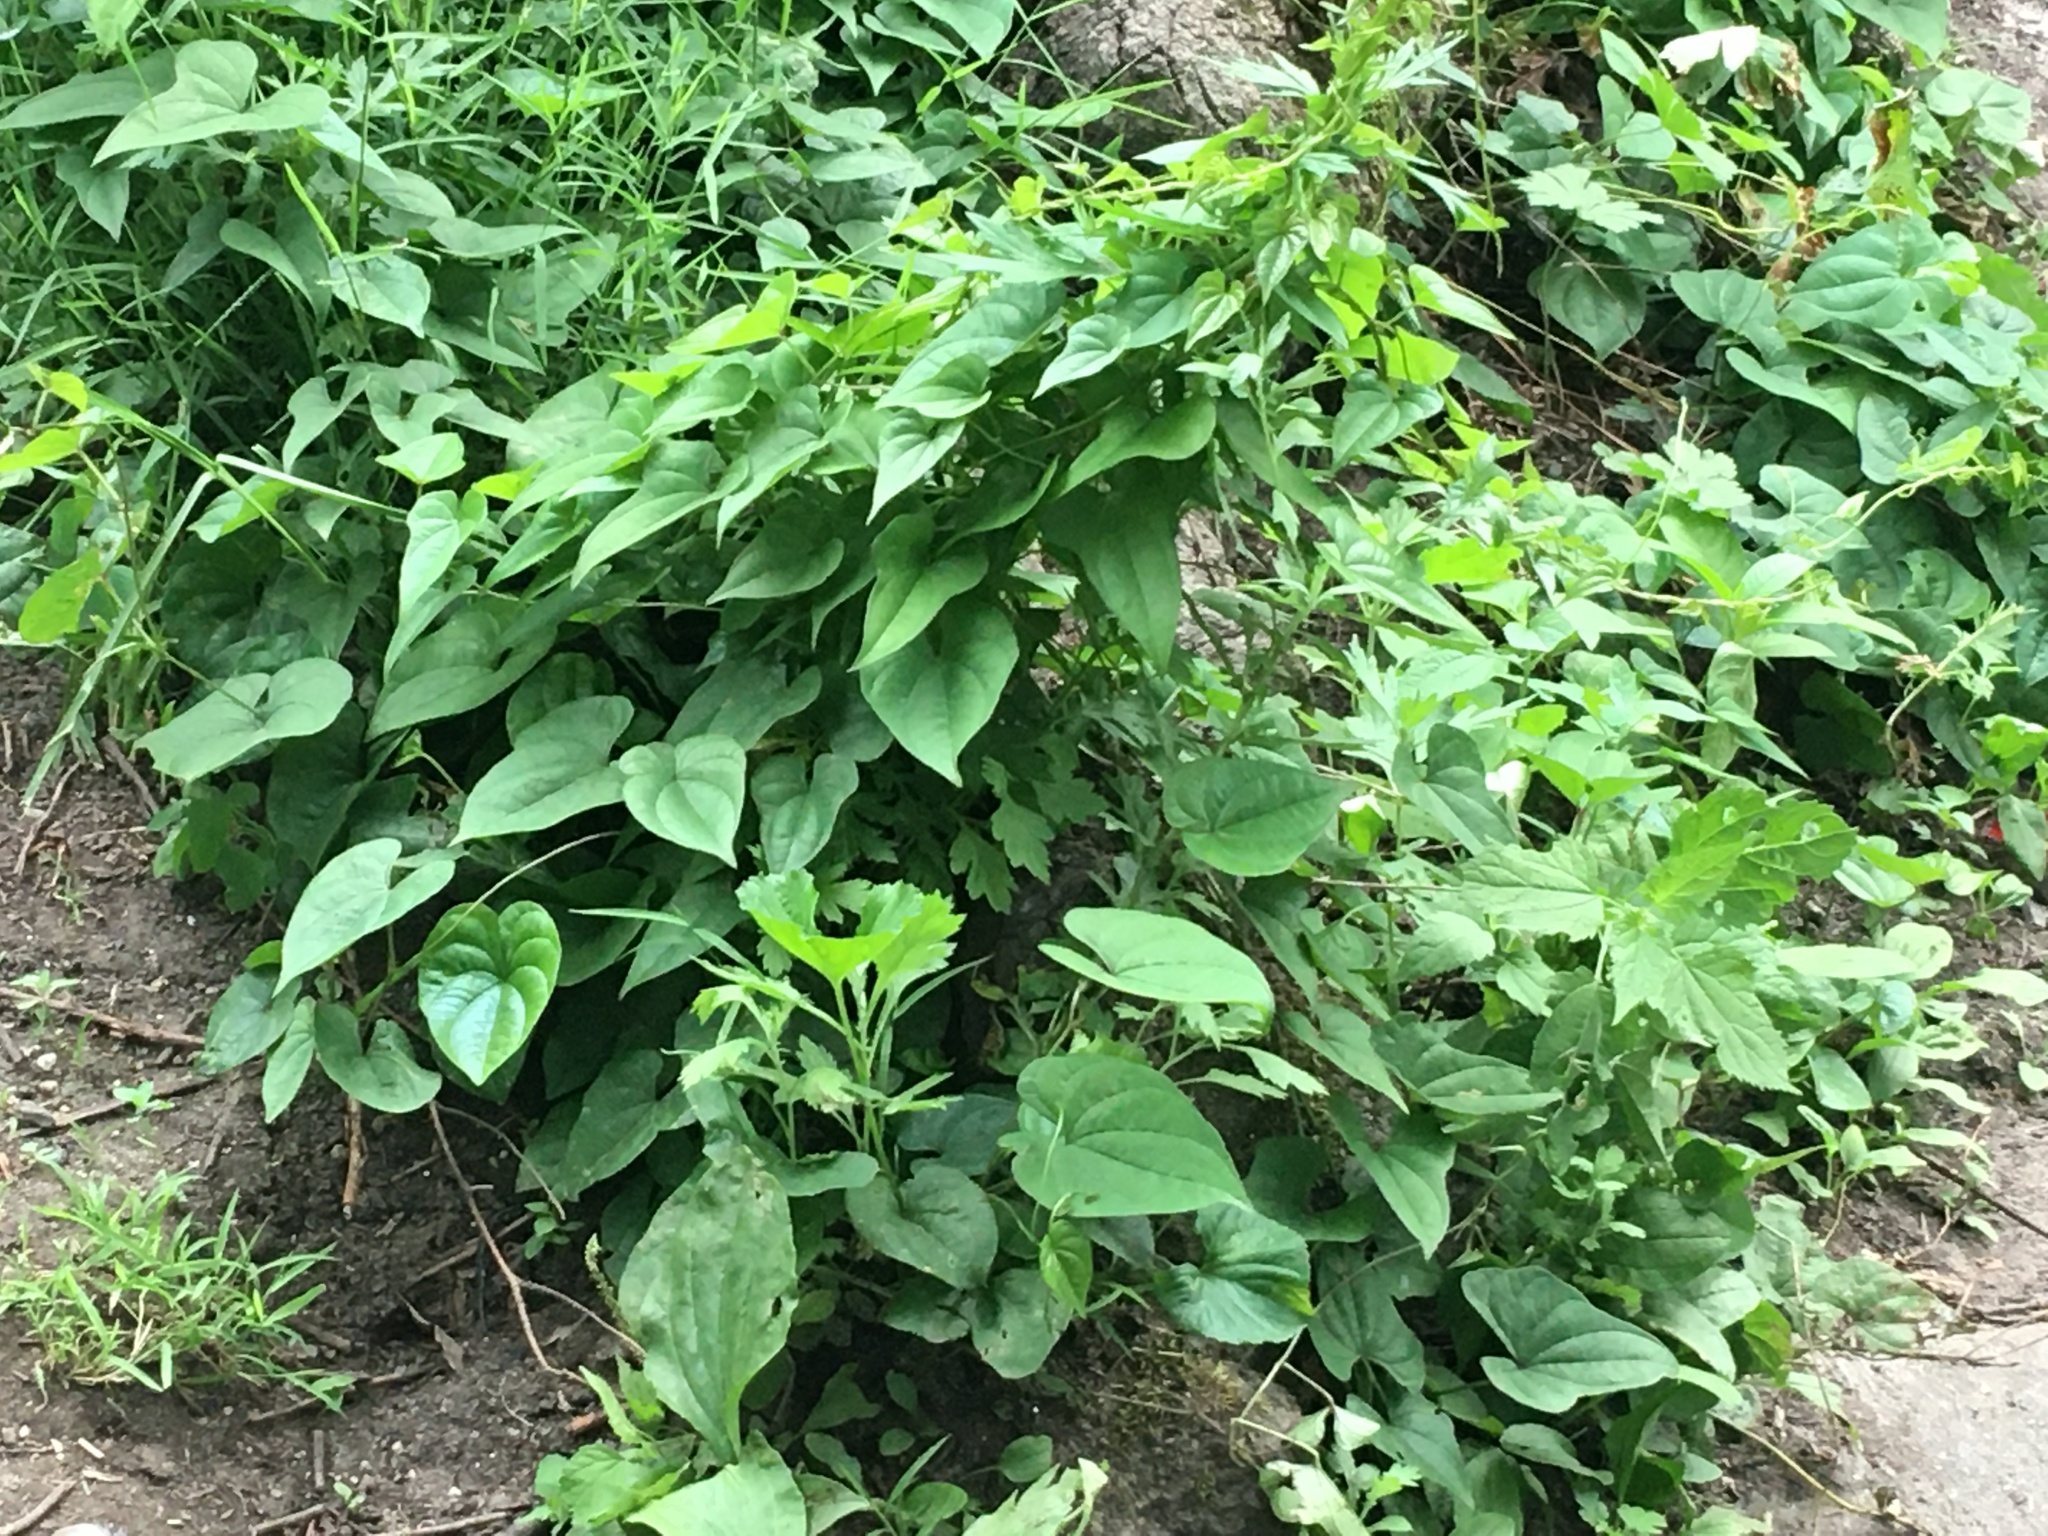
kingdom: Plantae
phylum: Tracheophyta
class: Liliopsida
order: Dioscoreales
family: Dioscoreaceae
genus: Dioscorea
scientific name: Dioscorea polystachya
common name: Chinese yam
